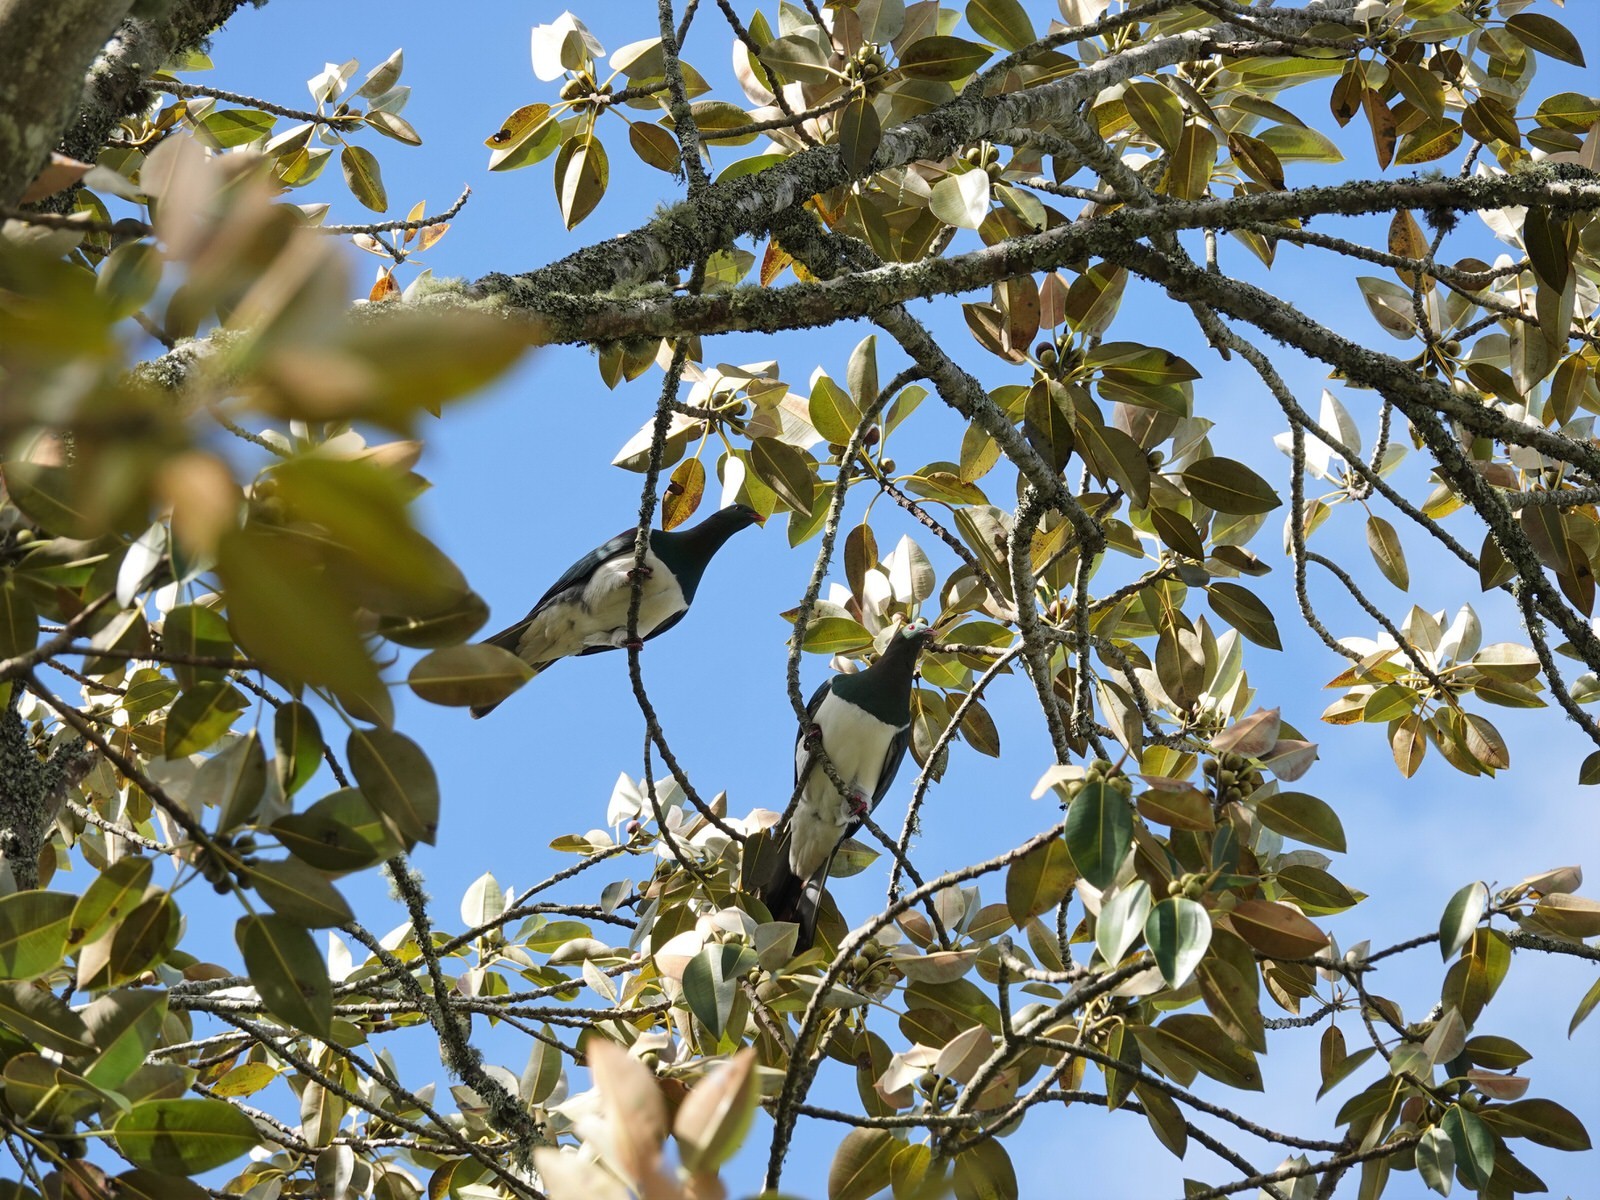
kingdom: Animalia
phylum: Chordata
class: Aves
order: Columbiformes
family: Columbidae
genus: Hemiphaga
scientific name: Hemiphaga novaeseelandiae
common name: New zealand pigeon
